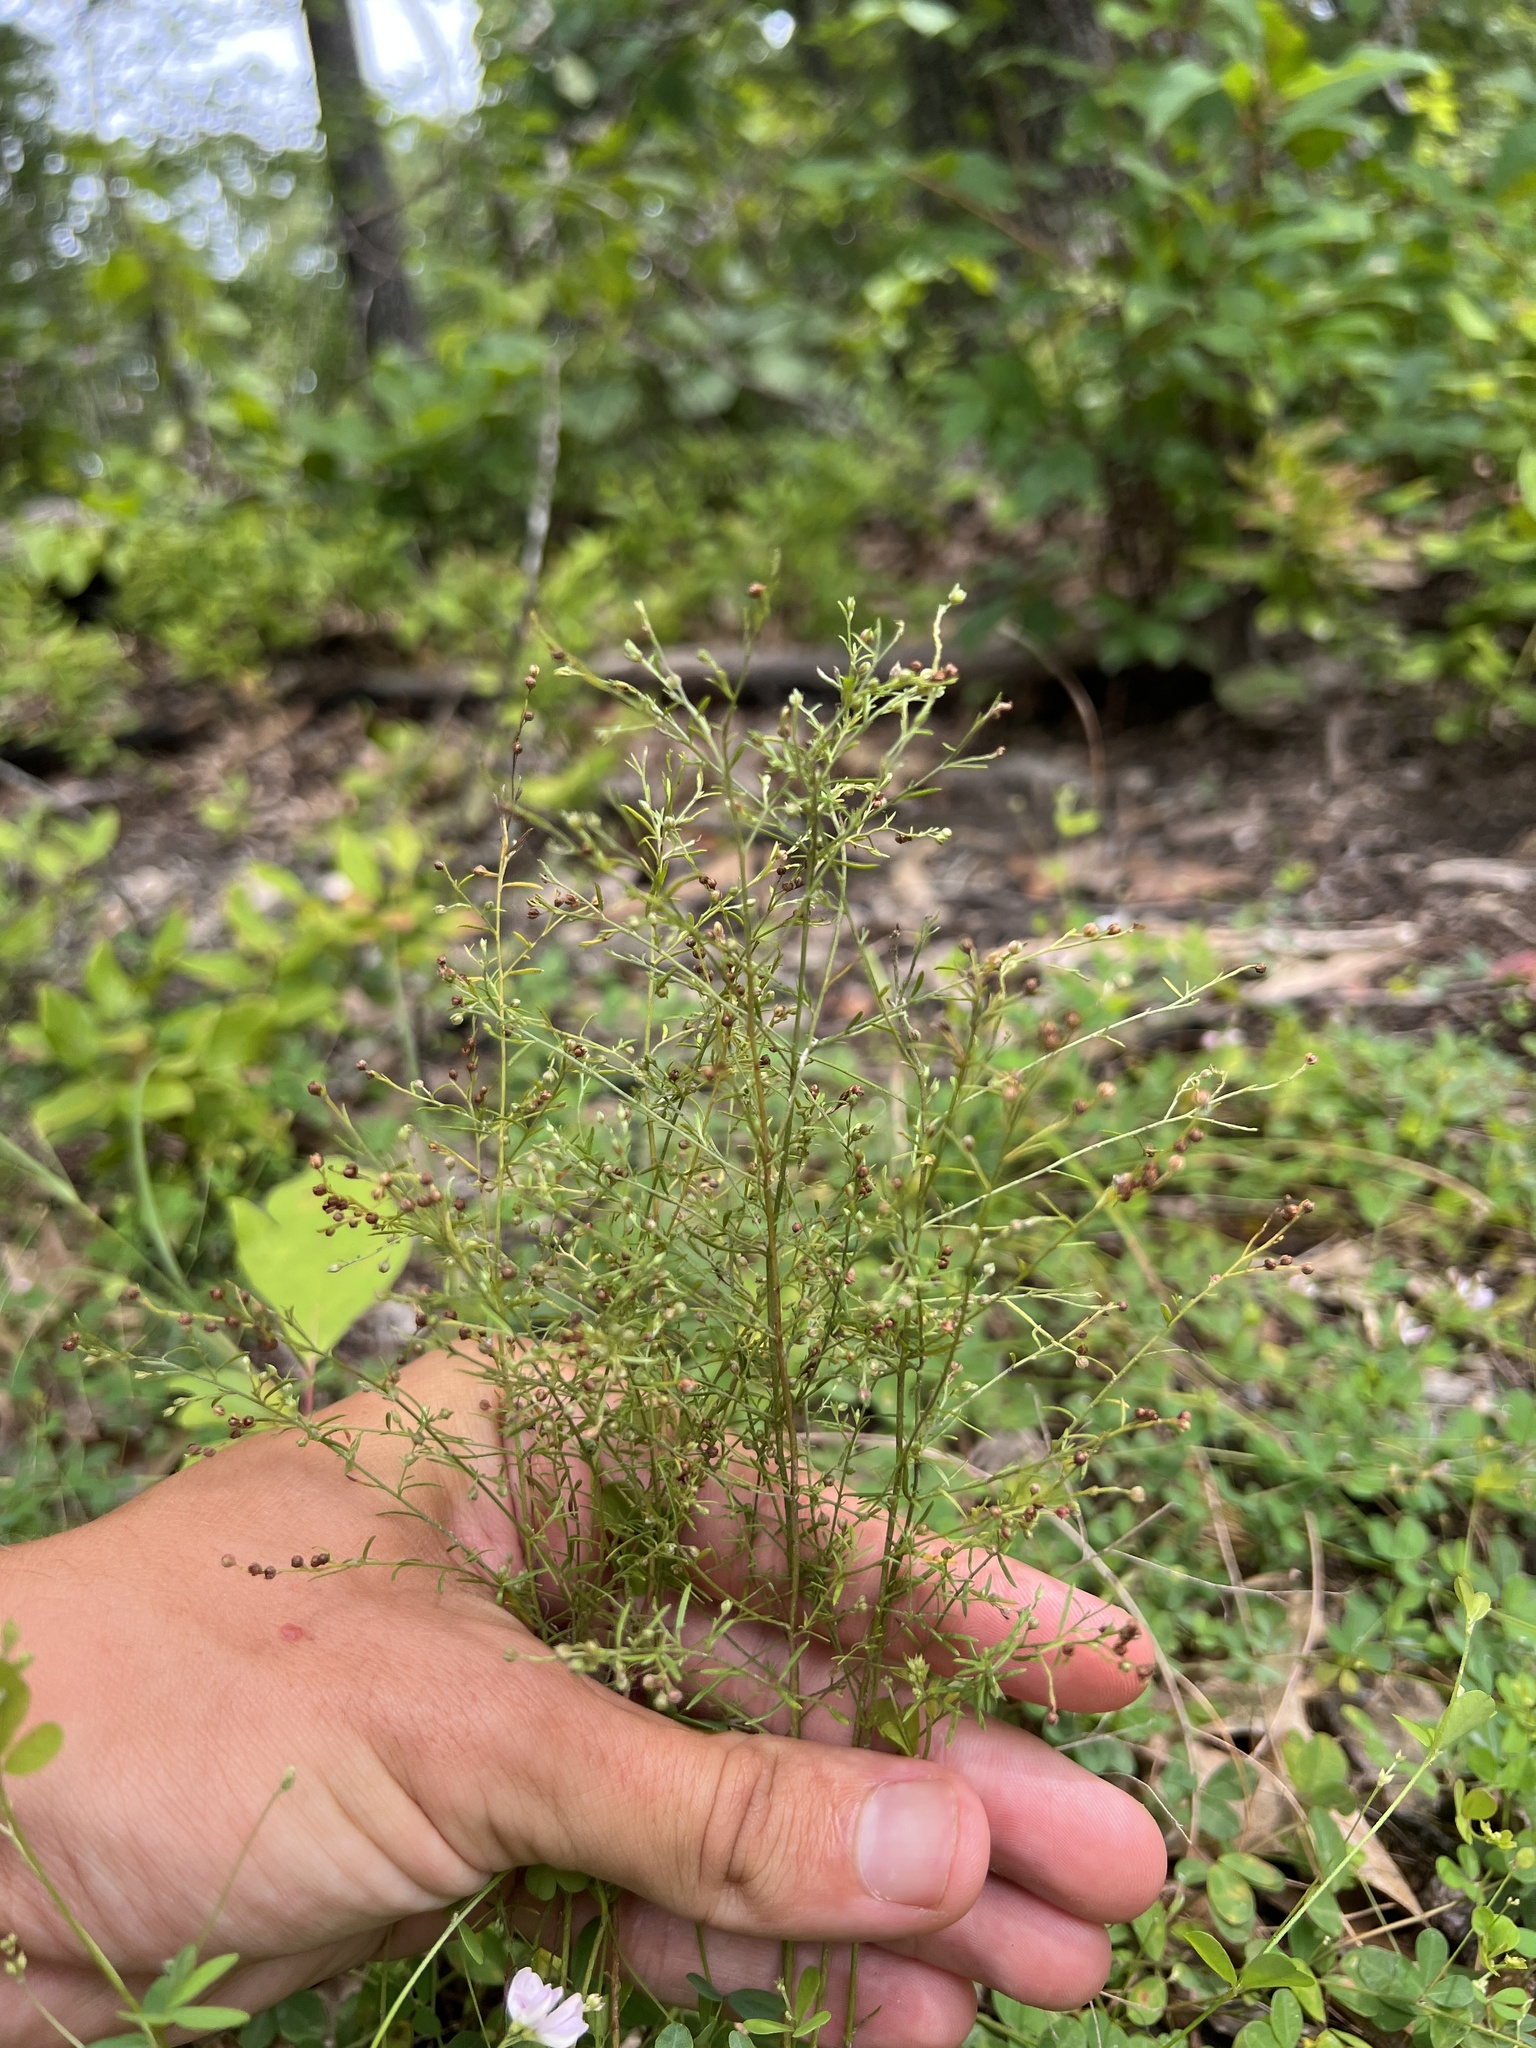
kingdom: Plantae
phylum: Tracheophyta
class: Magnoliopsida
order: Malvales
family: Cistaceae
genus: Lechea
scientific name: Lechea tenuifolia
